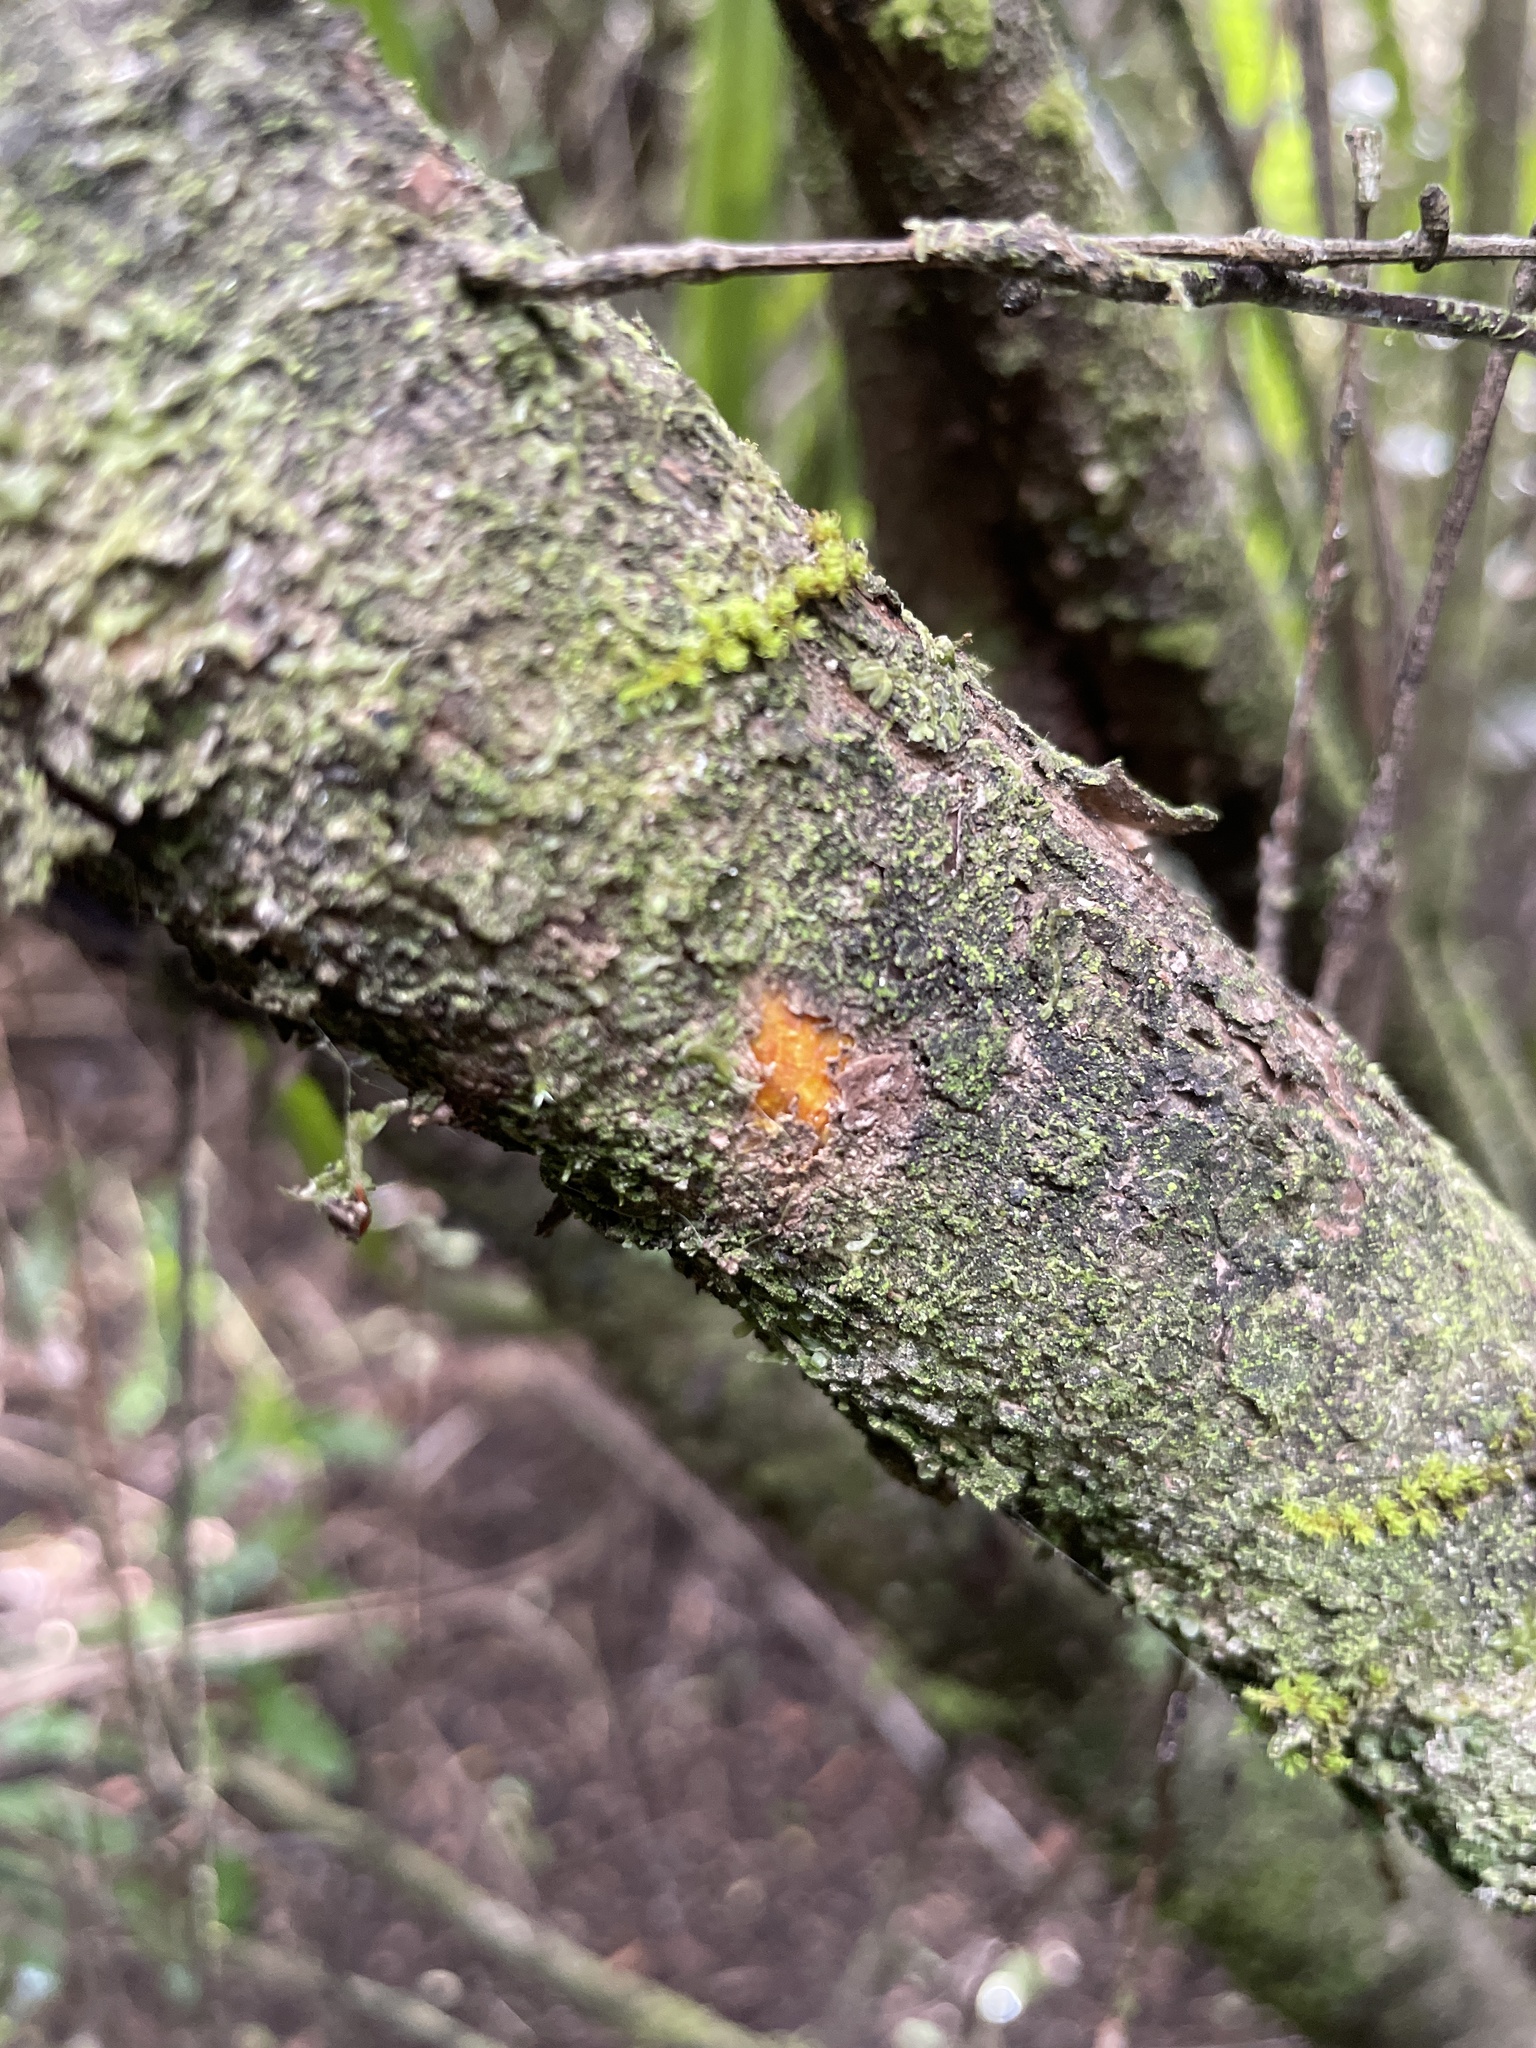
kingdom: Plantae
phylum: Tracheophyta
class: Magnoliopsida
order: Gentianales
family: Rubiaceae
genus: Coprosma
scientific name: Coprosma pedicellata
